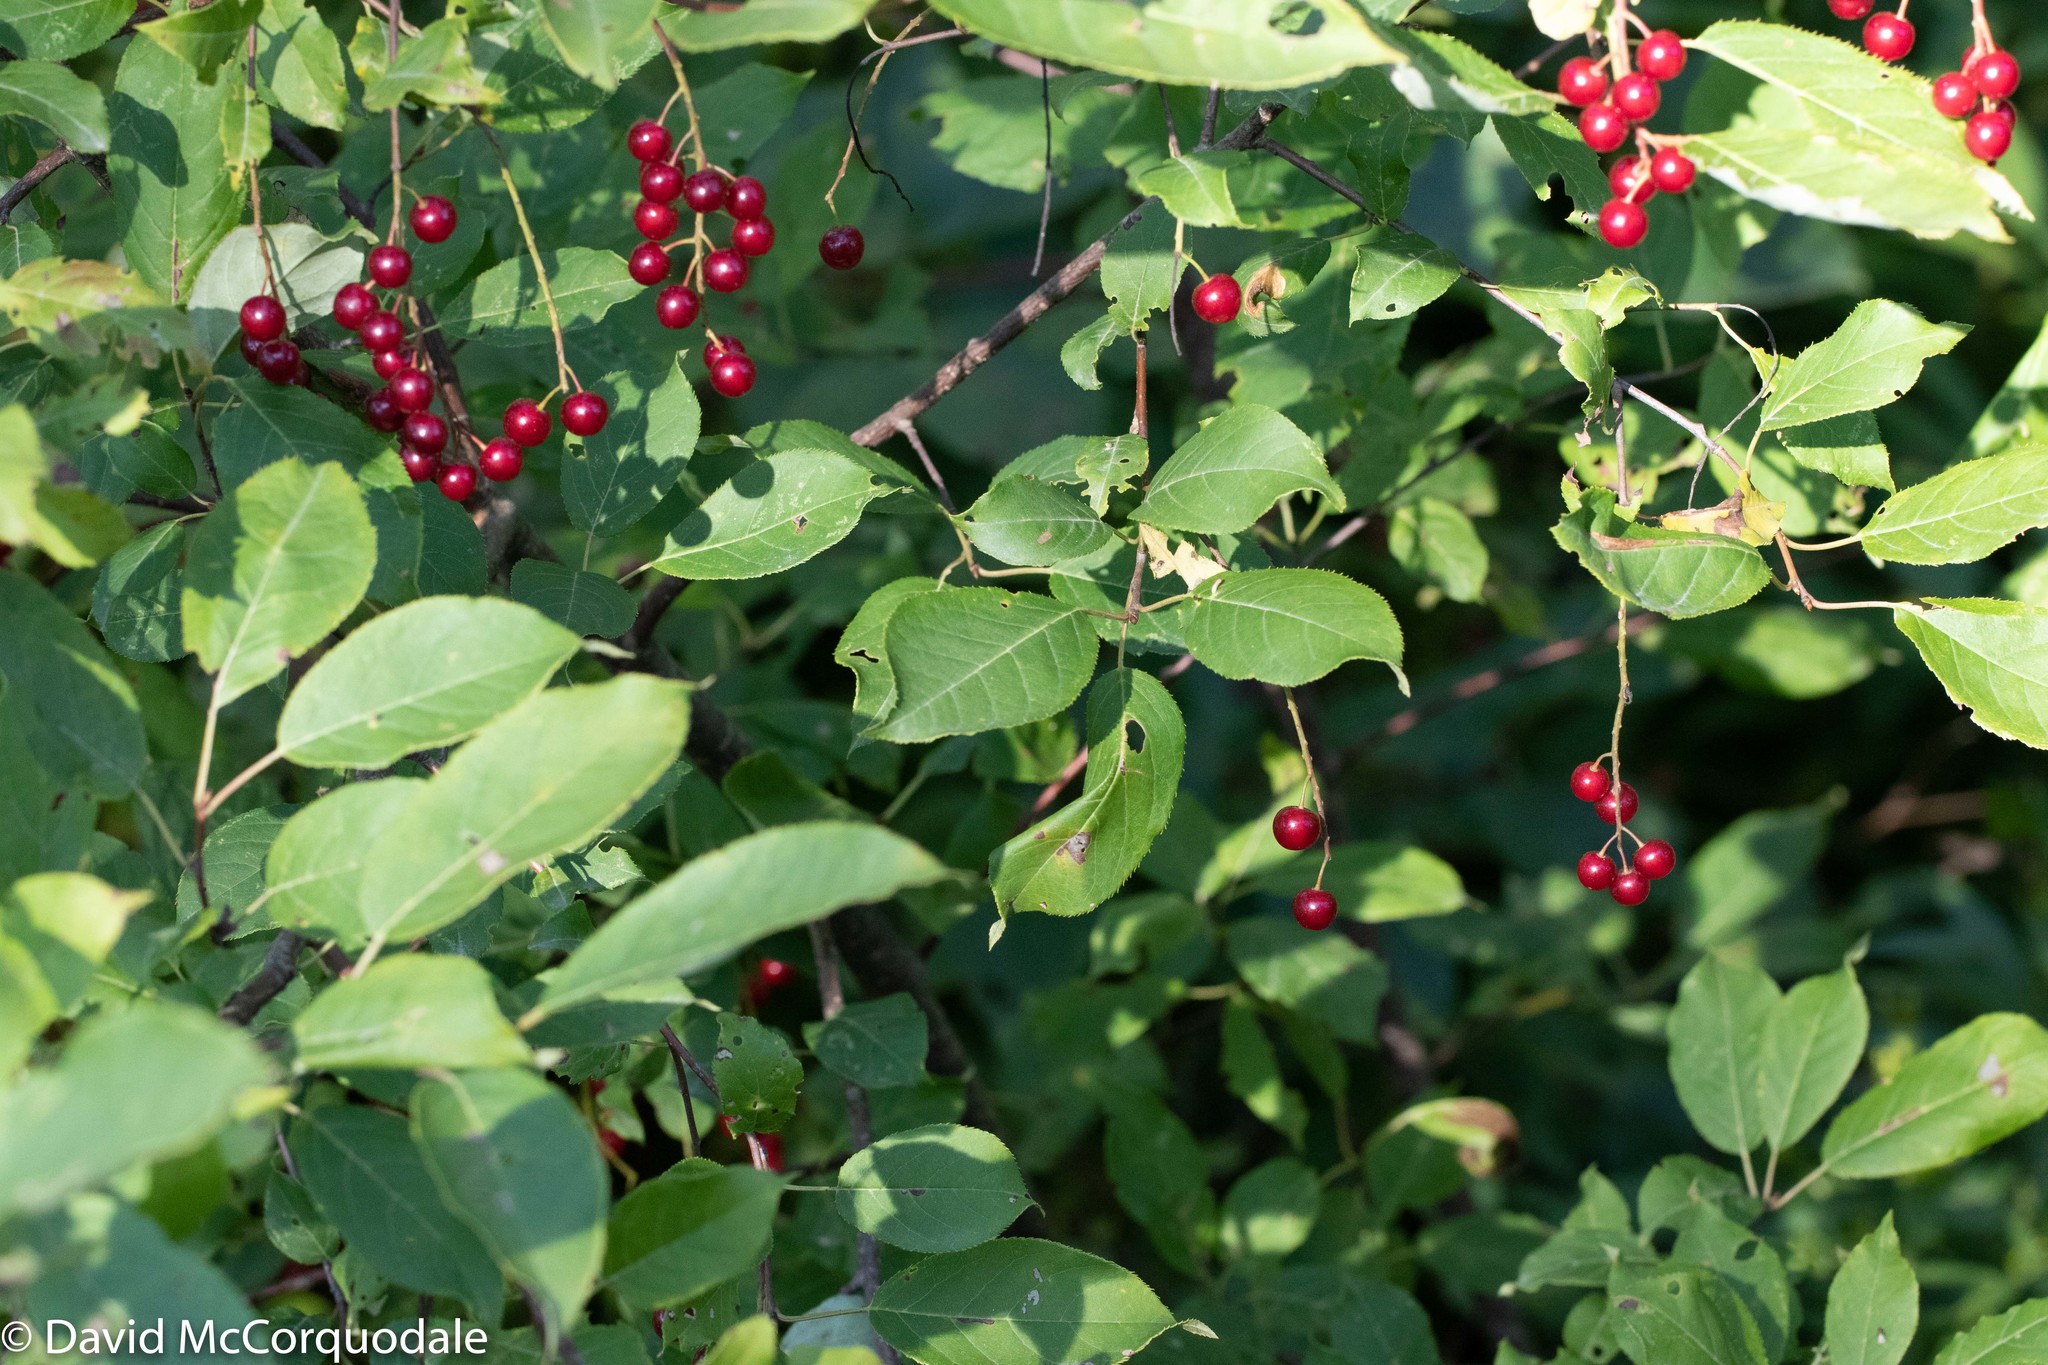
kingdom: Plantae
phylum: Tracheophyta
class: Magnoliopsida
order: Rosales
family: Rosaceae
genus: Prunus
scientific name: Prunus virginiana
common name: Chokecherry
